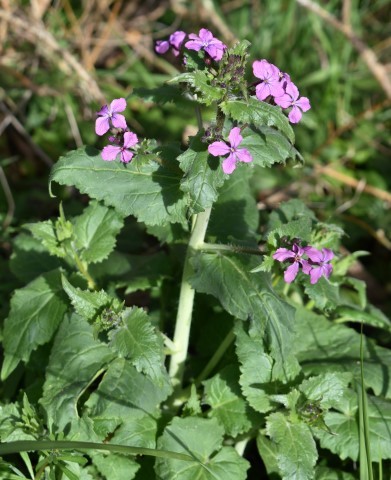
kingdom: Plantae
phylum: Tracheophyta
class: Magnoliopsida
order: Brassicales
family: Brassicaceae
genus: Lunaria
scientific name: Lunaria annua
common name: Honesty
